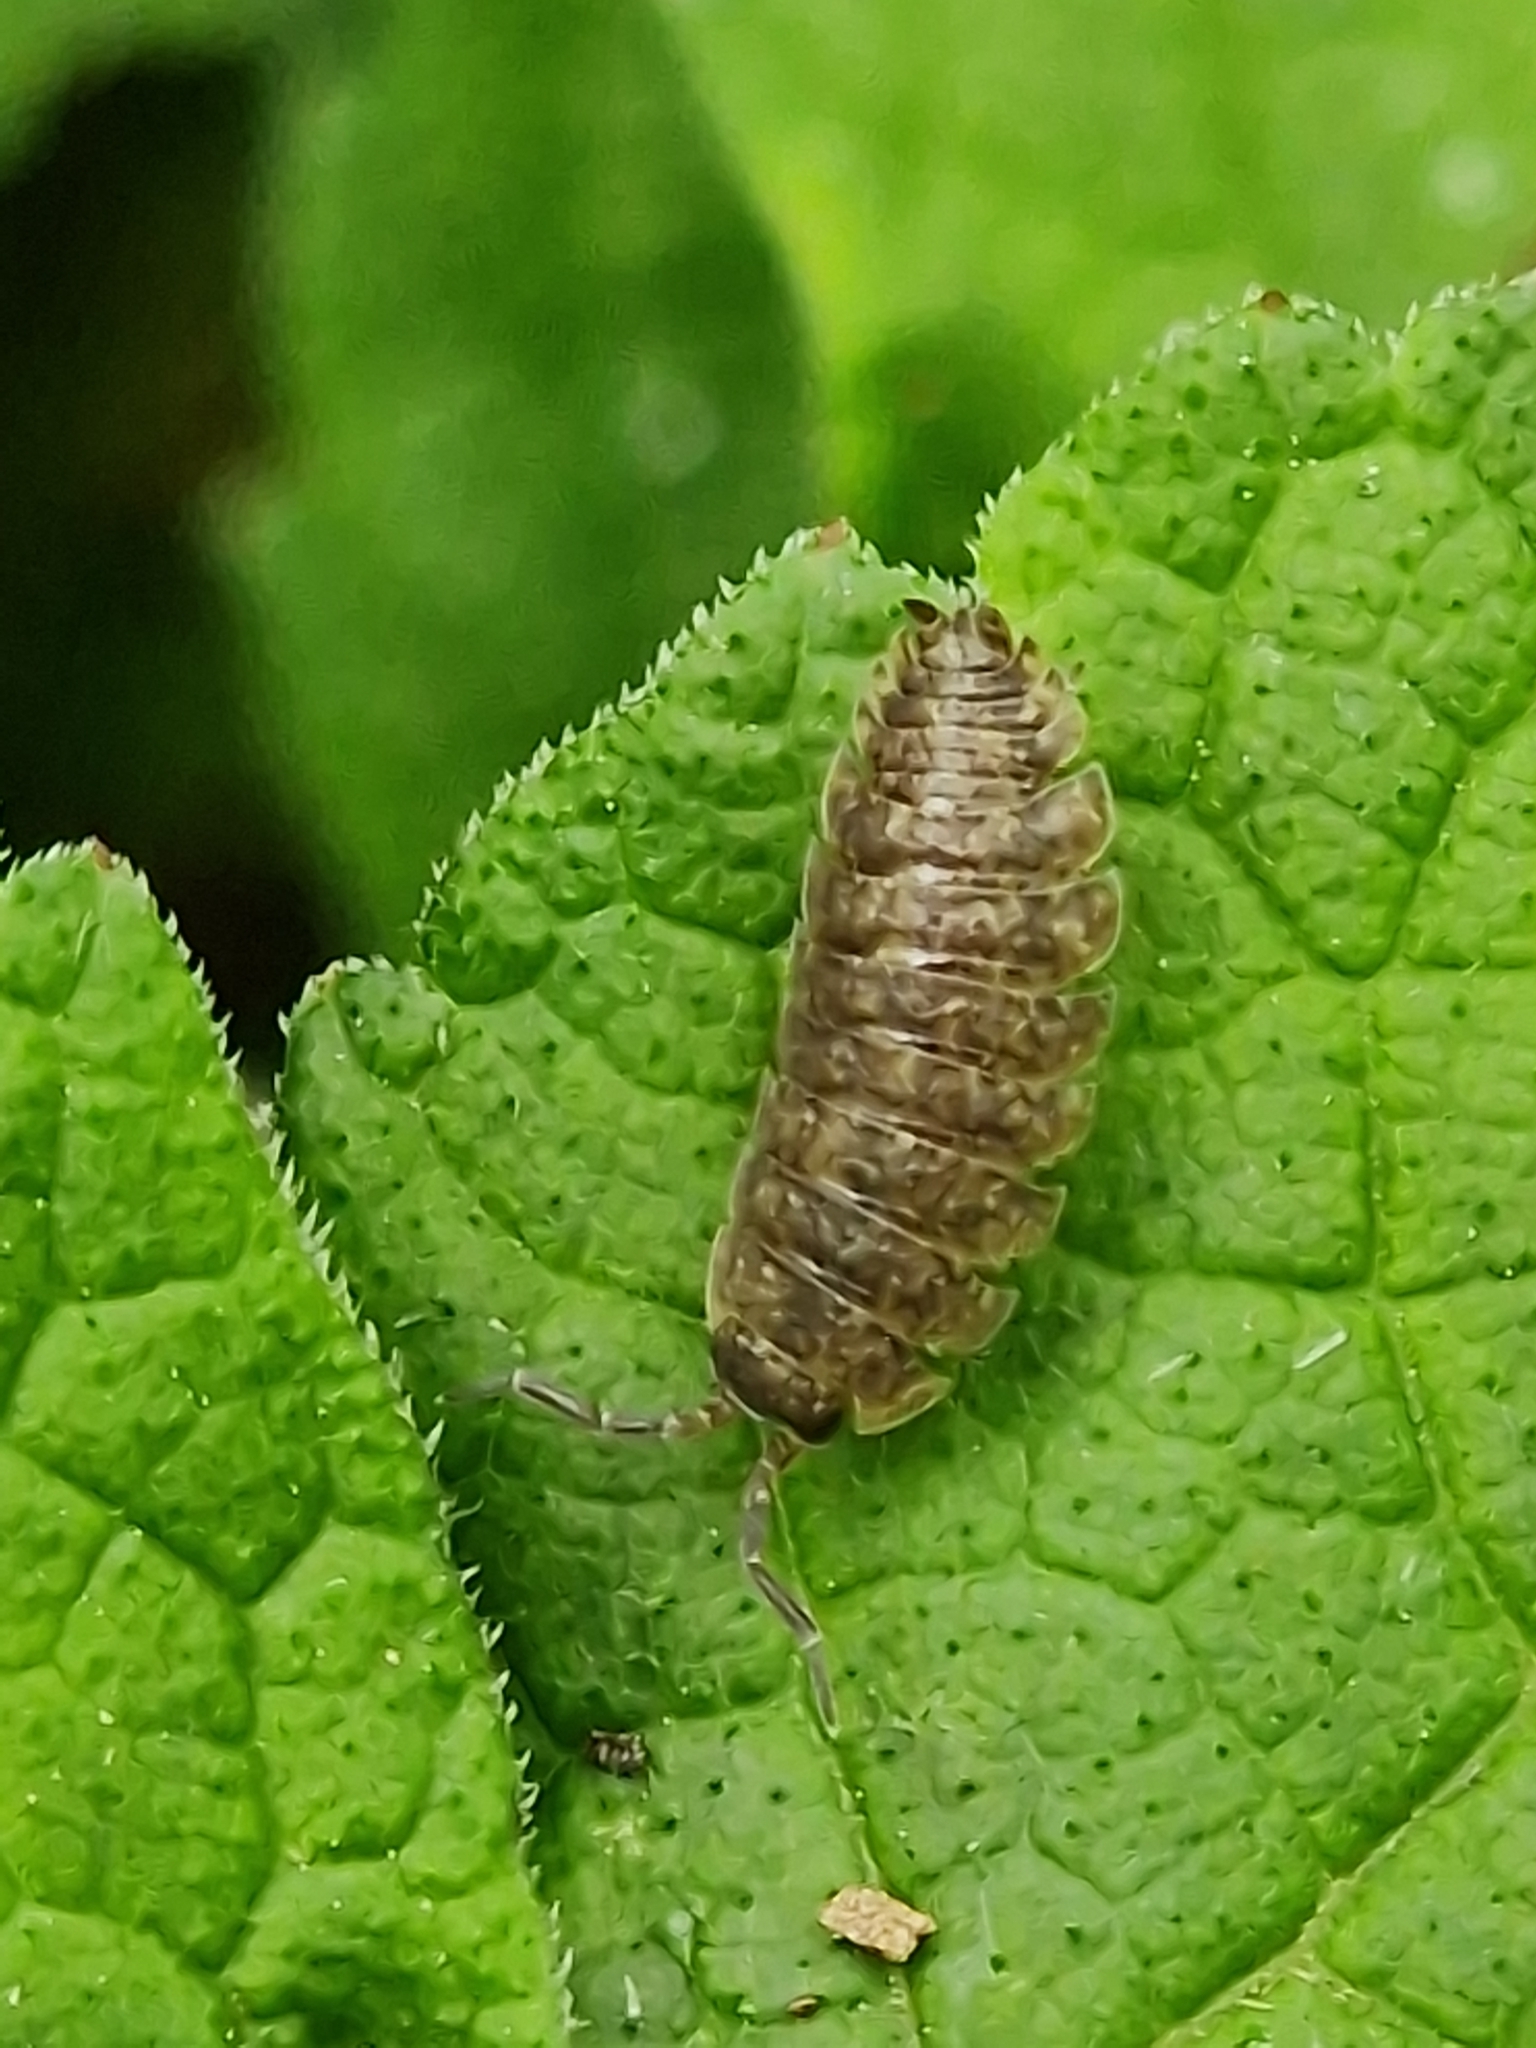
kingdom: Animalia
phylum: Arthropoda
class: Malacostraca
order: Isopoda
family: Porcellionidae
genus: Porcellio
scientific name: Porcellio scaber
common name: Common rough woodlouse
